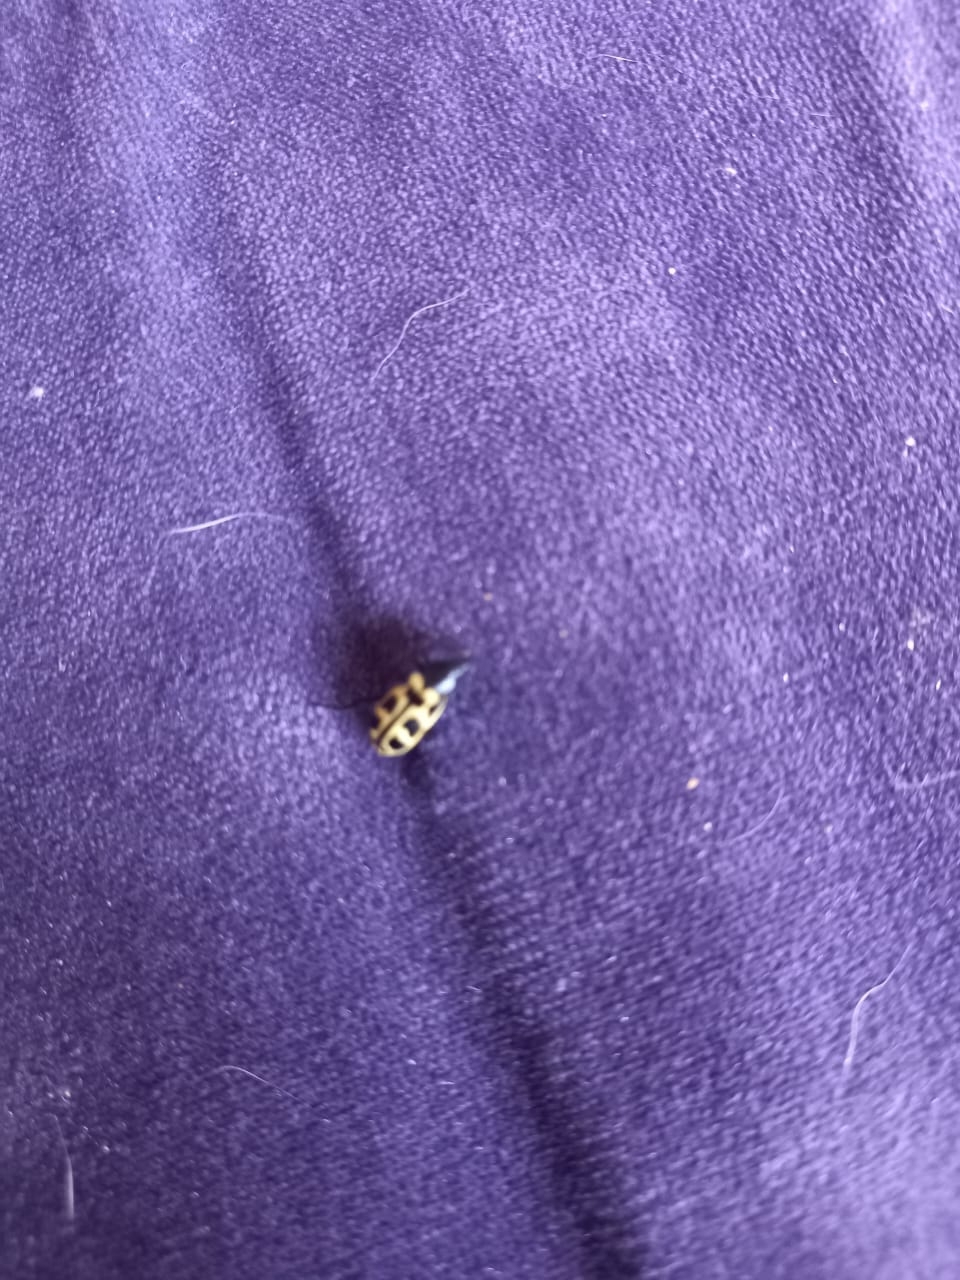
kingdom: Animalia
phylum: Arthropoda
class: Insecta
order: Coleoptera
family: Melyridae
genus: Astylus
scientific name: Astylus atromaculatus
